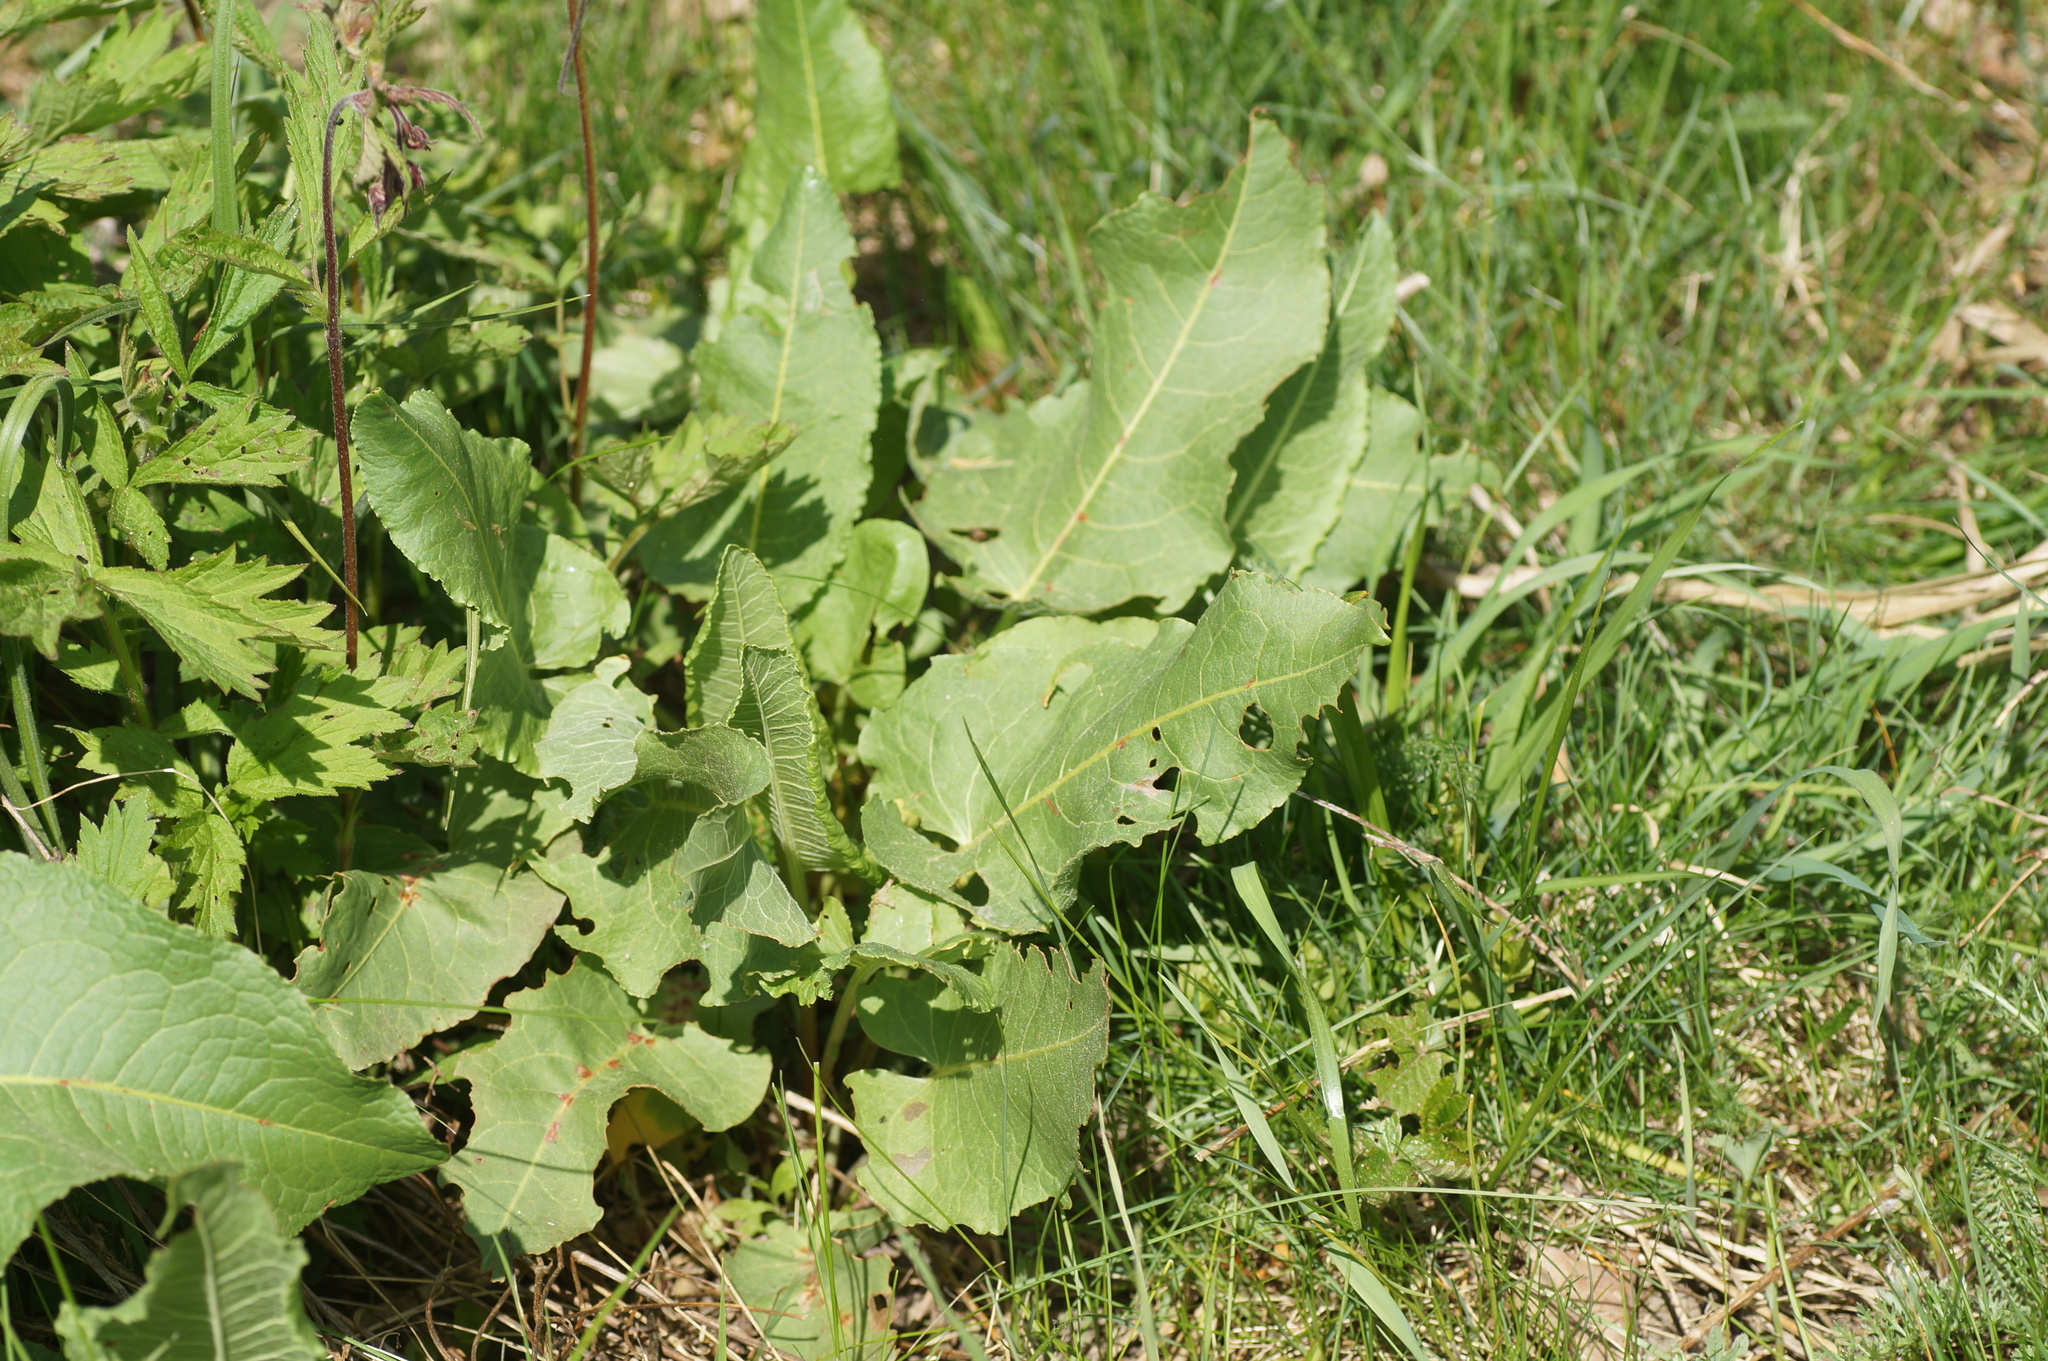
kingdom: Plantae
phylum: Tracheophyta
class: Magnoliopsida
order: Caryophyllales
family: Polygonaceae
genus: Rumex
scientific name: Rumex confertus
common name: Russian dock
